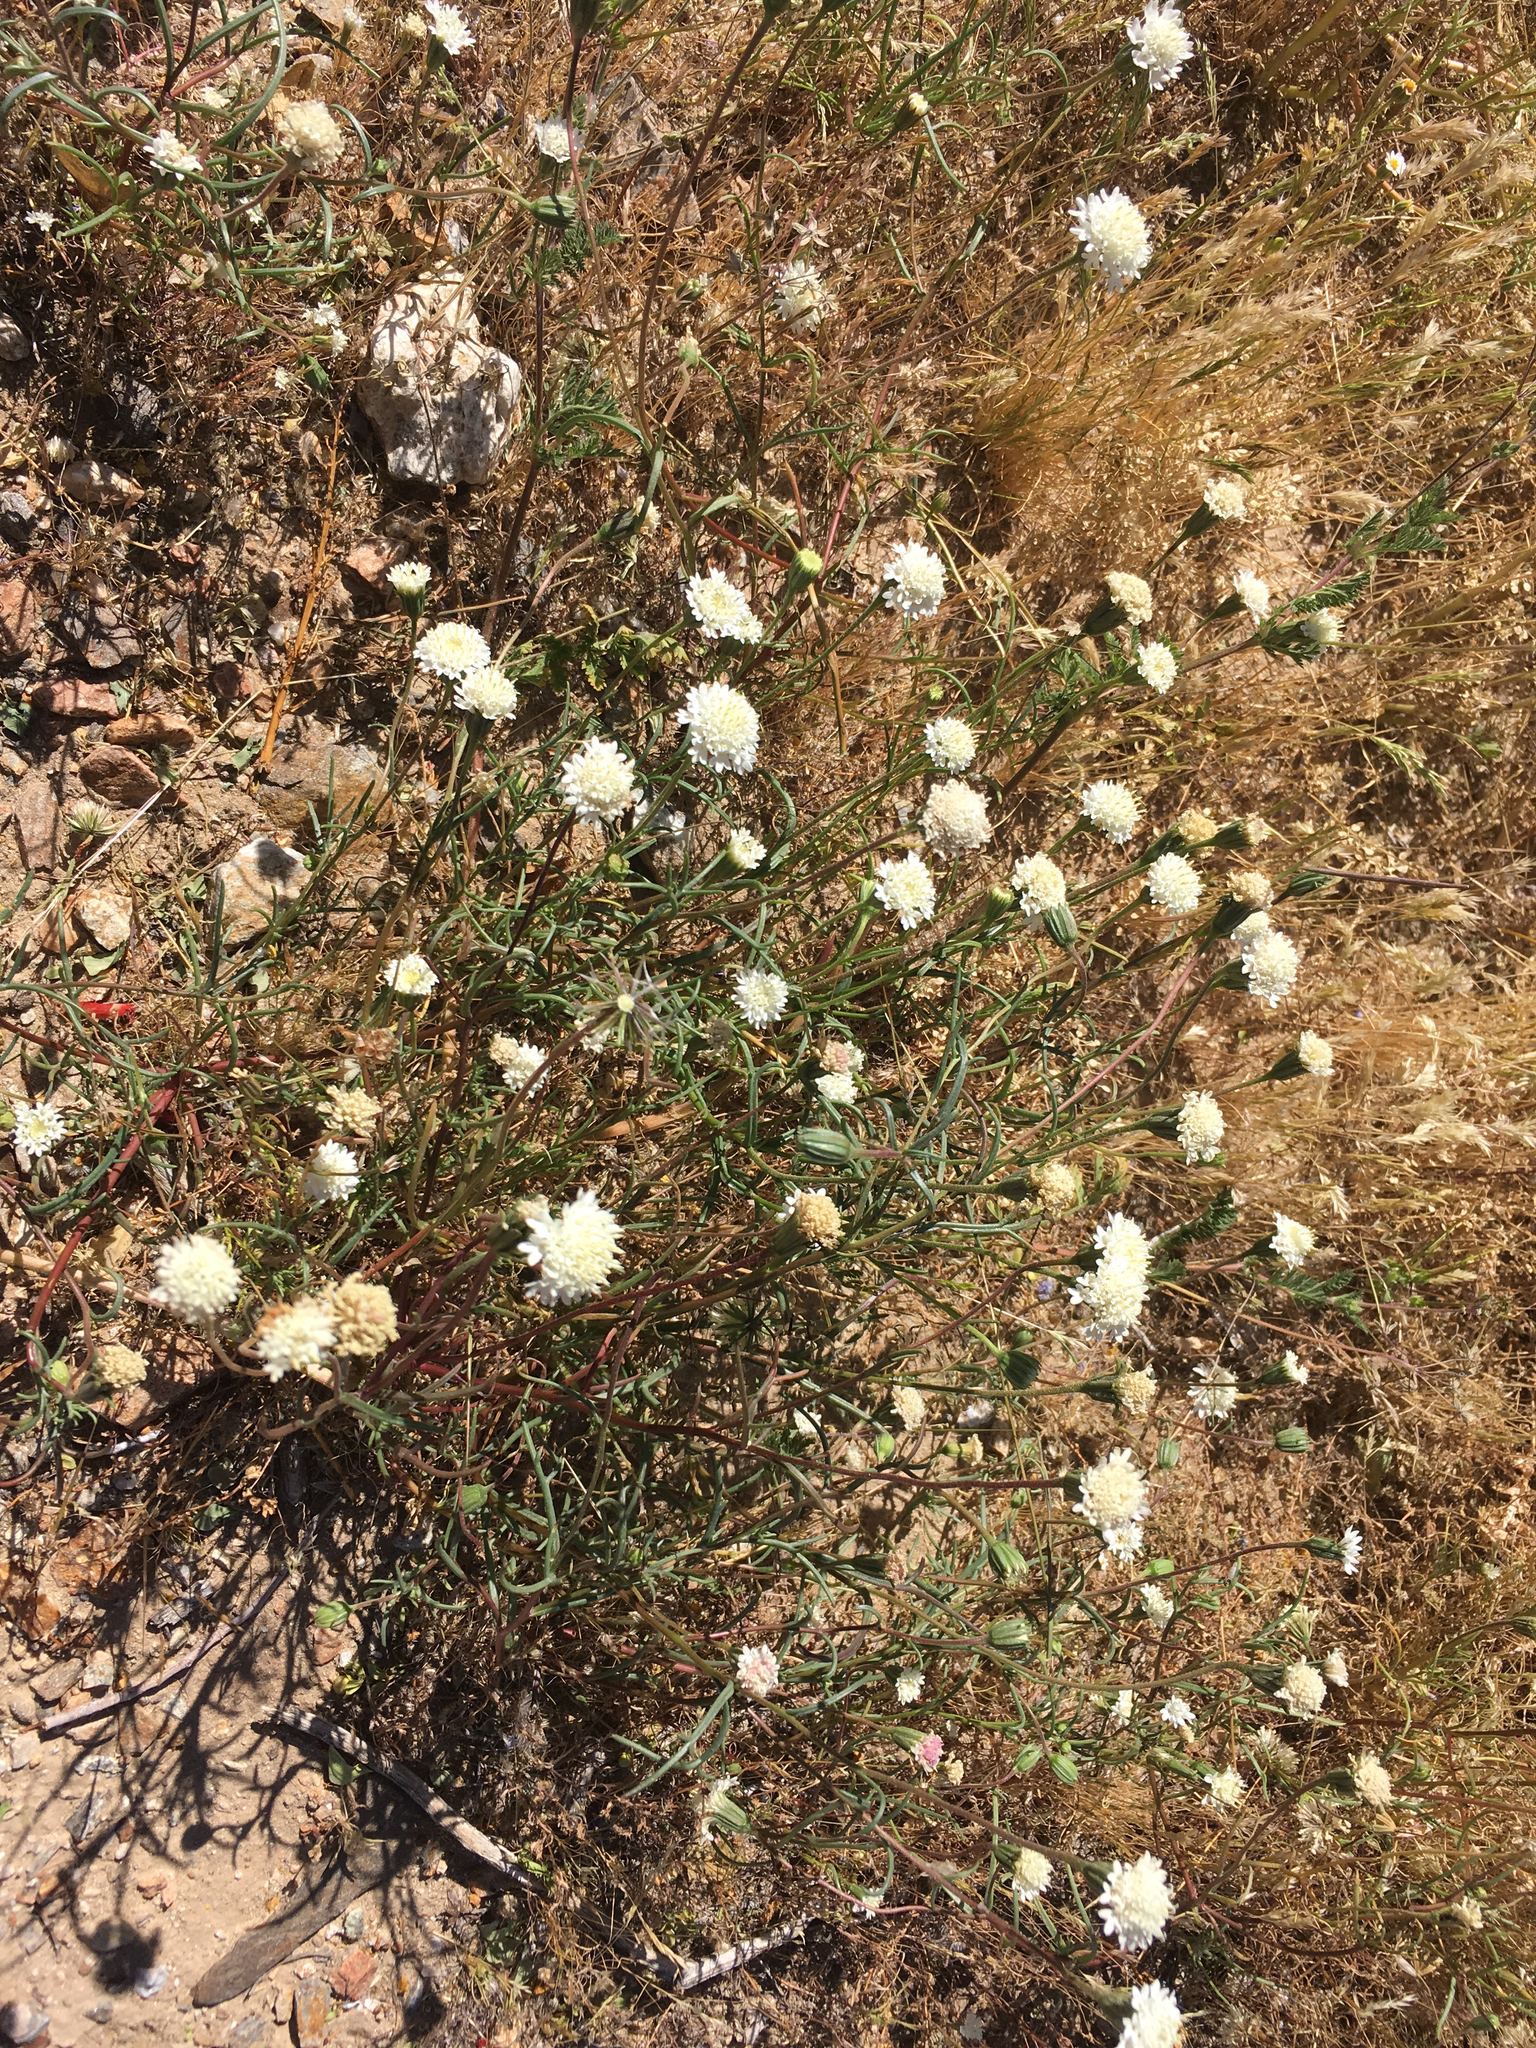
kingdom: Plantae
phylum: Tracheophyta
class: Magnoliopsida
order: Asterales
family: Asteraceae
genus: Chaenactis
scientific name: Chaenactis fremontii
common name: Fremont pincushion
